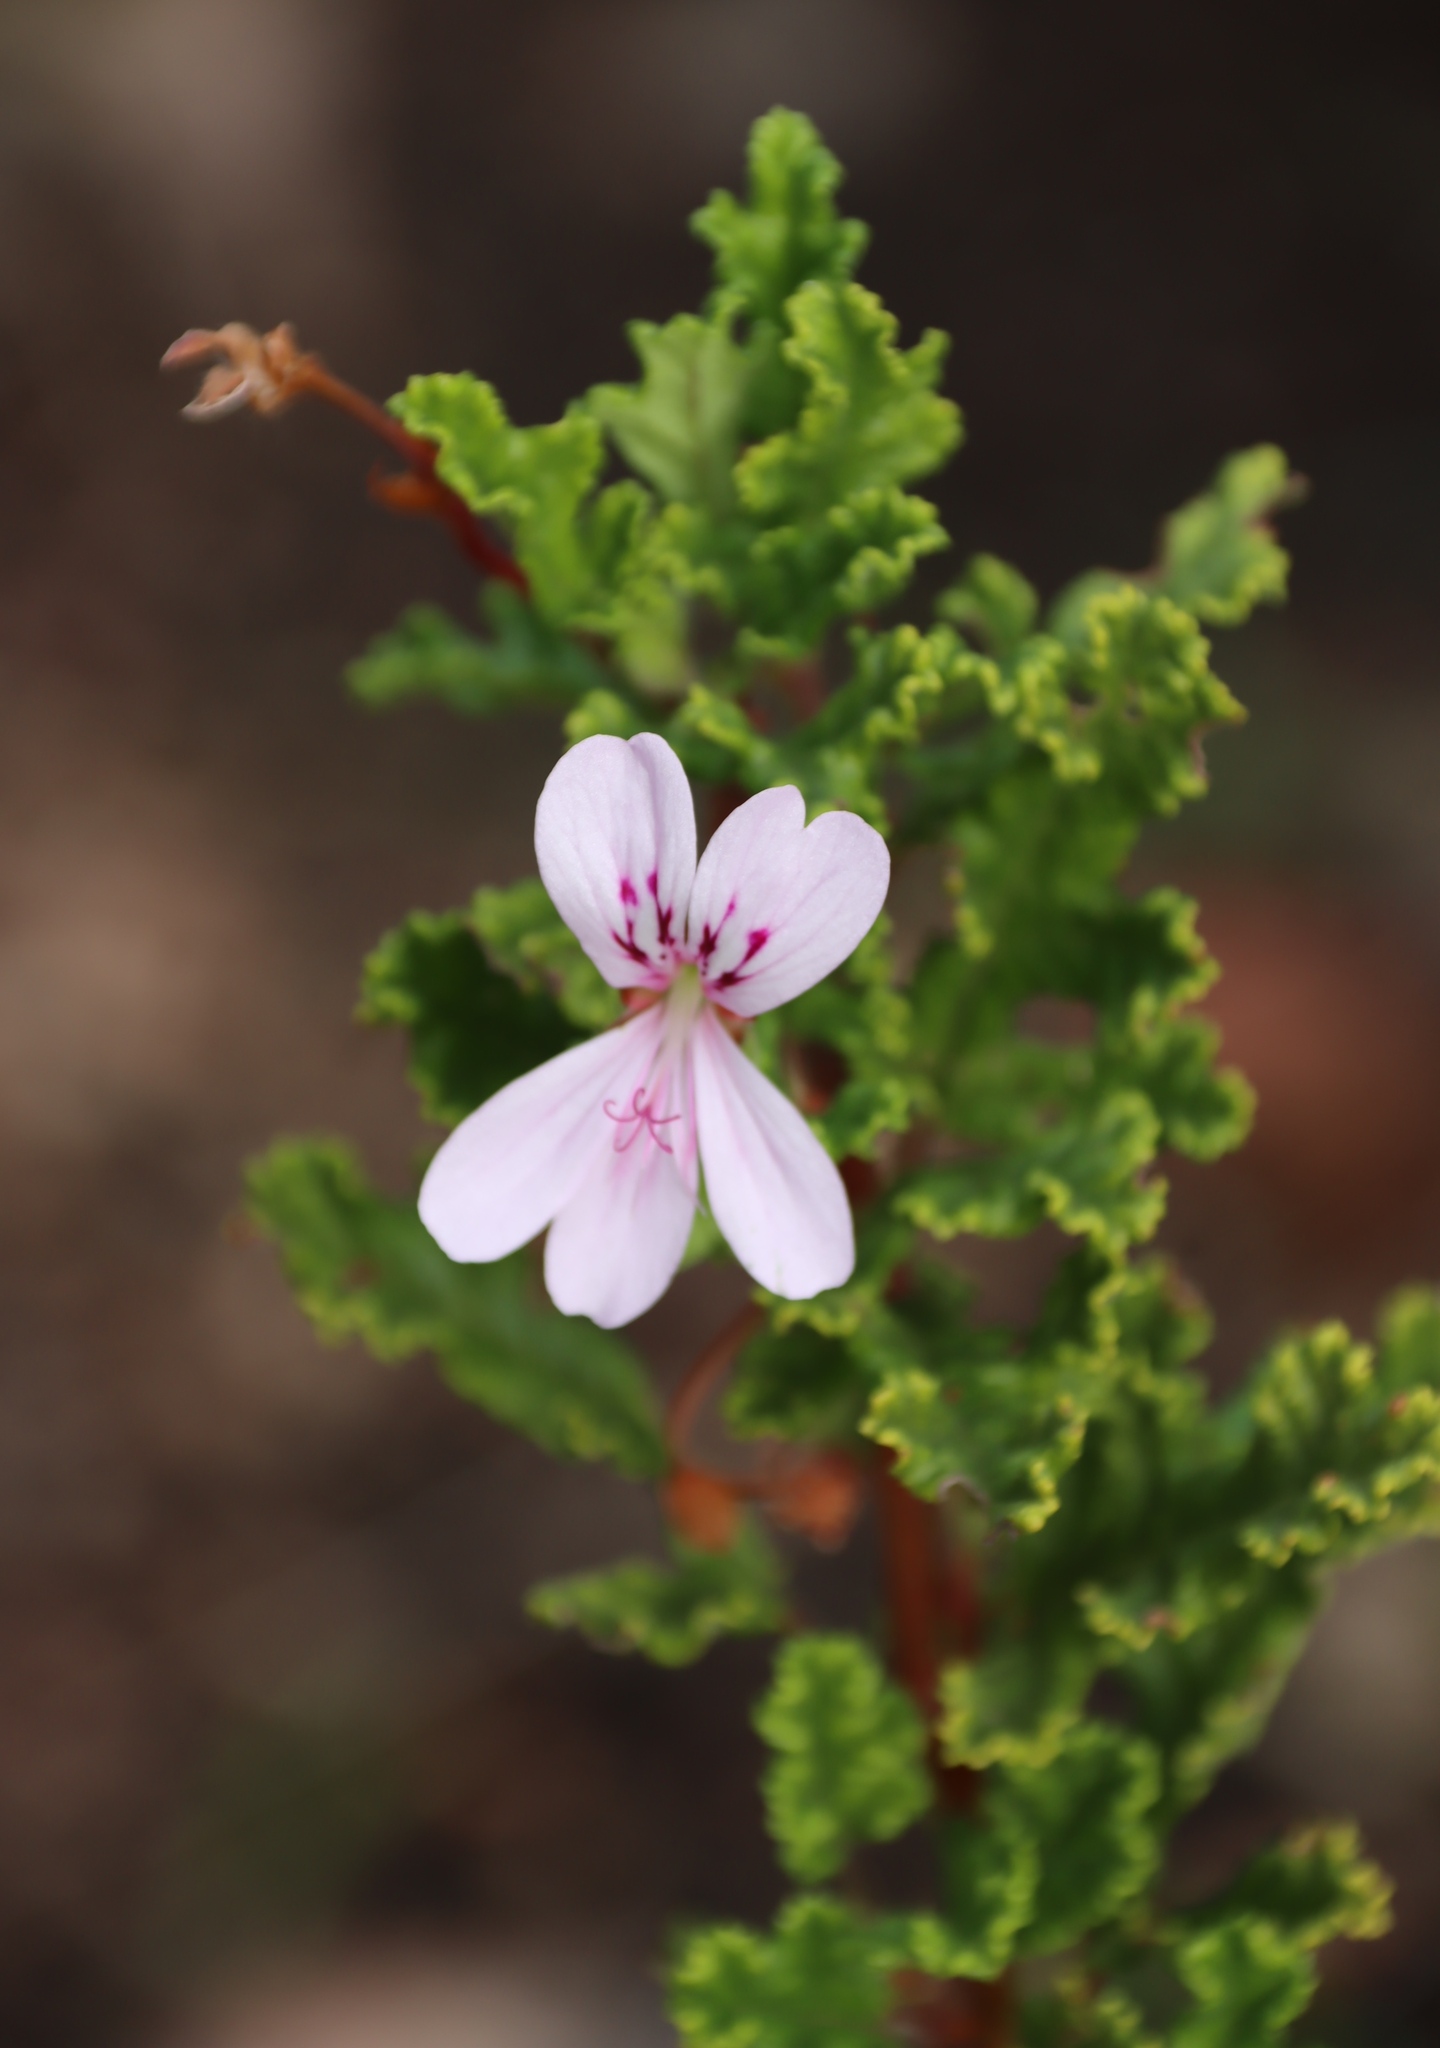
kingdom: Plantae
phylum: Tracheophyta
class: Magnoliopsida
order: Geraniales
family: Geraniaceae
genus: Pelargonium
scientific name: Pelargonium panduriforme
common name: Oakleaf garden geranium
